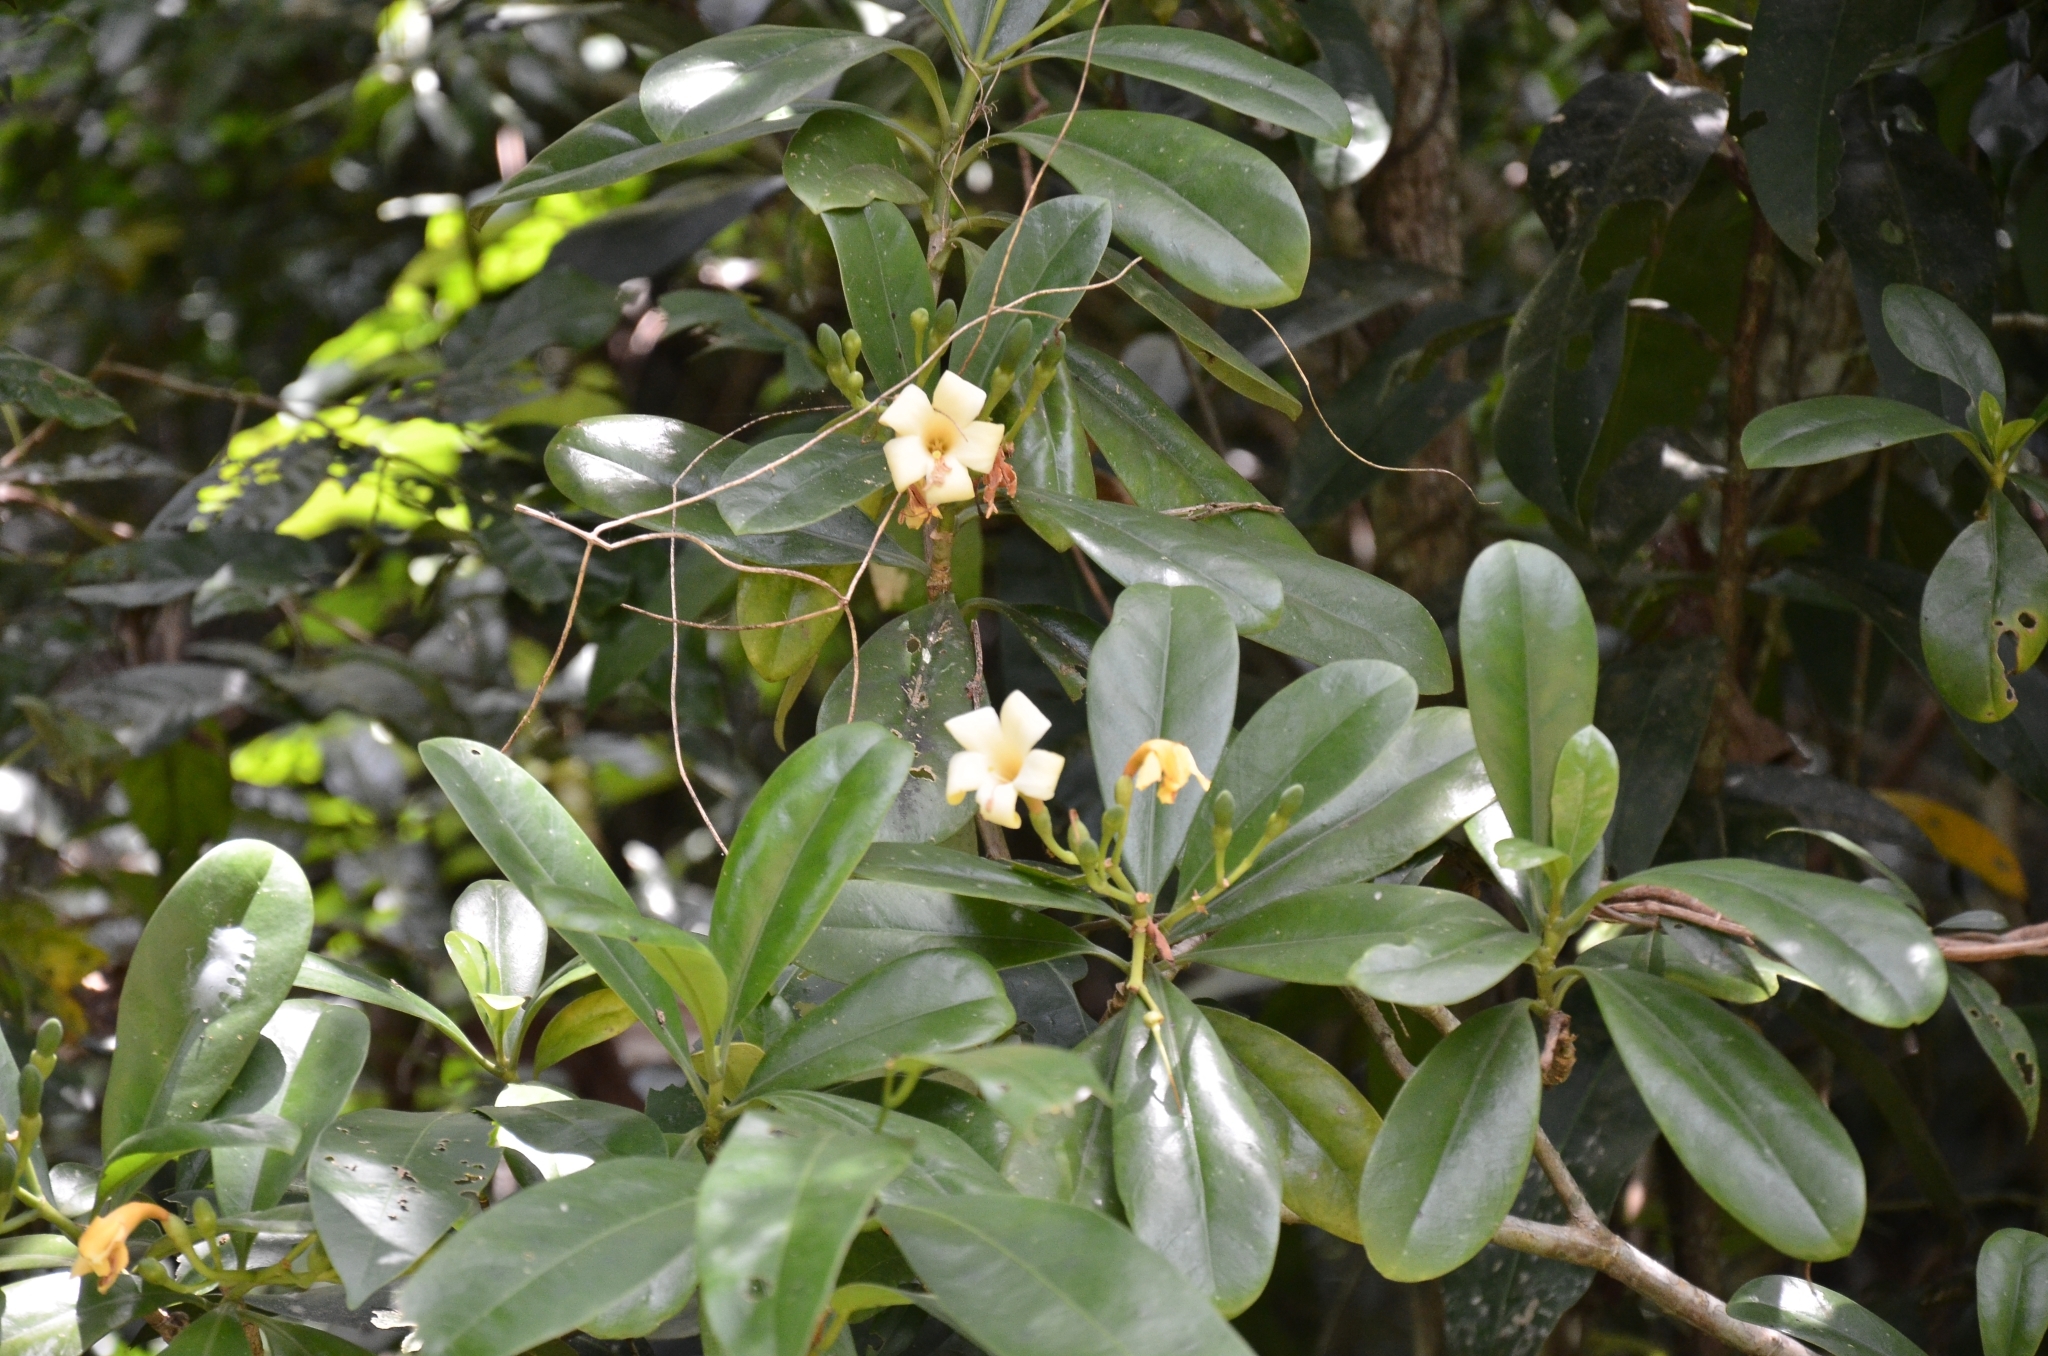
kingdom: Plantae
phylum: Tracheophyta
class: Magnoliopsida
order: Gentianales
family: Gentianaceae
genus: Fagraea
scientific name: Fagraea ceilanica
